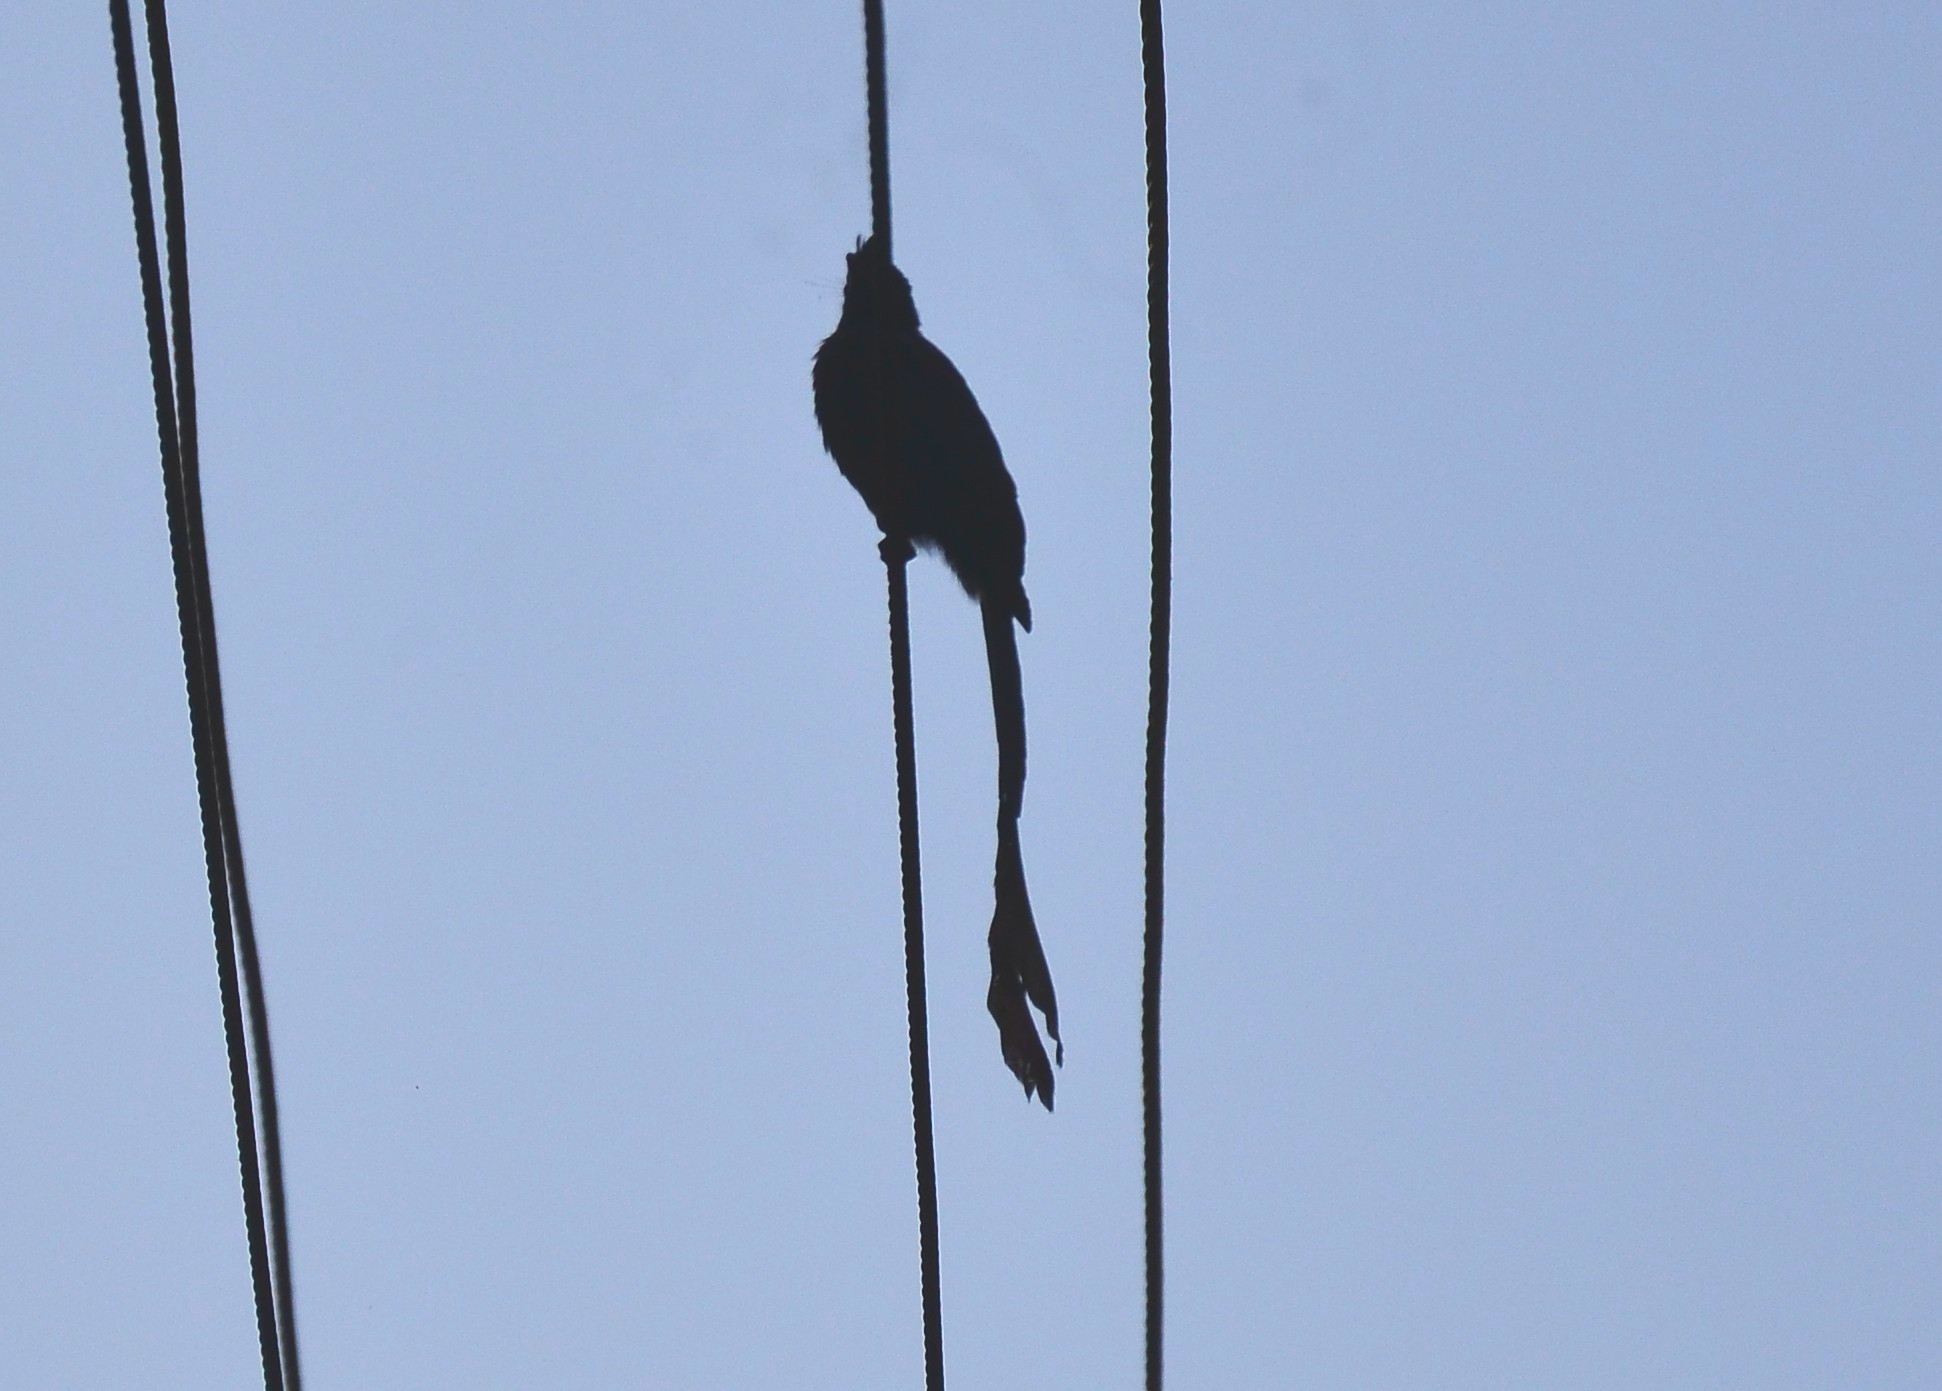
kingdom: Animalia
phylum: Chordata
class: Aves
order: Passeriformes
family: Dicruridae
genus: Dicrurus
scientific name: Dicrurus paradiseus
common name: Greater racket-tailed drongo
